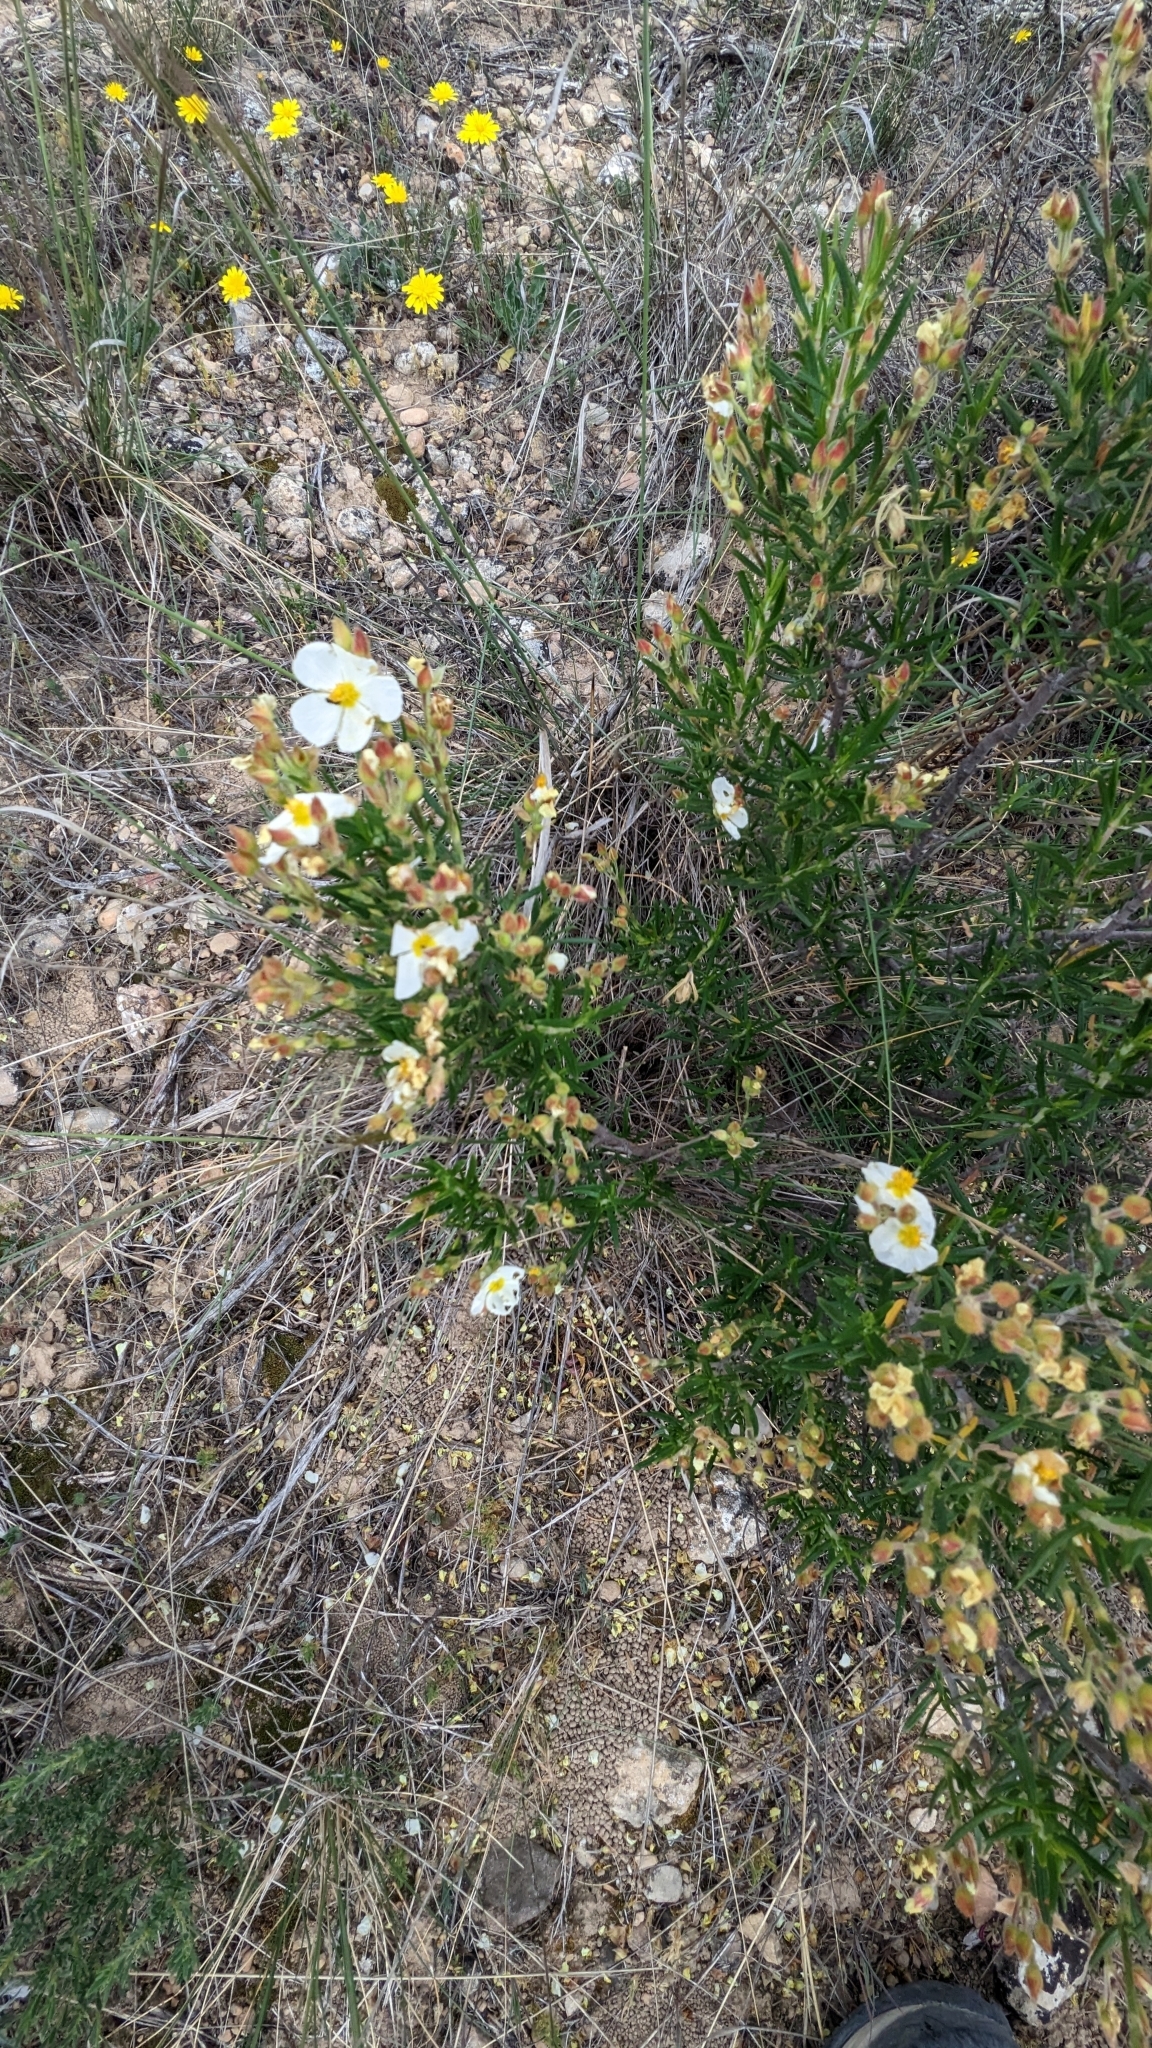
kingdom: Plantae
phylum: Tracheophyta
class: Magnoliopsida
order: Malvales
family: Cistaceae
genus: Cistus
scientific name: Cistus clusii
